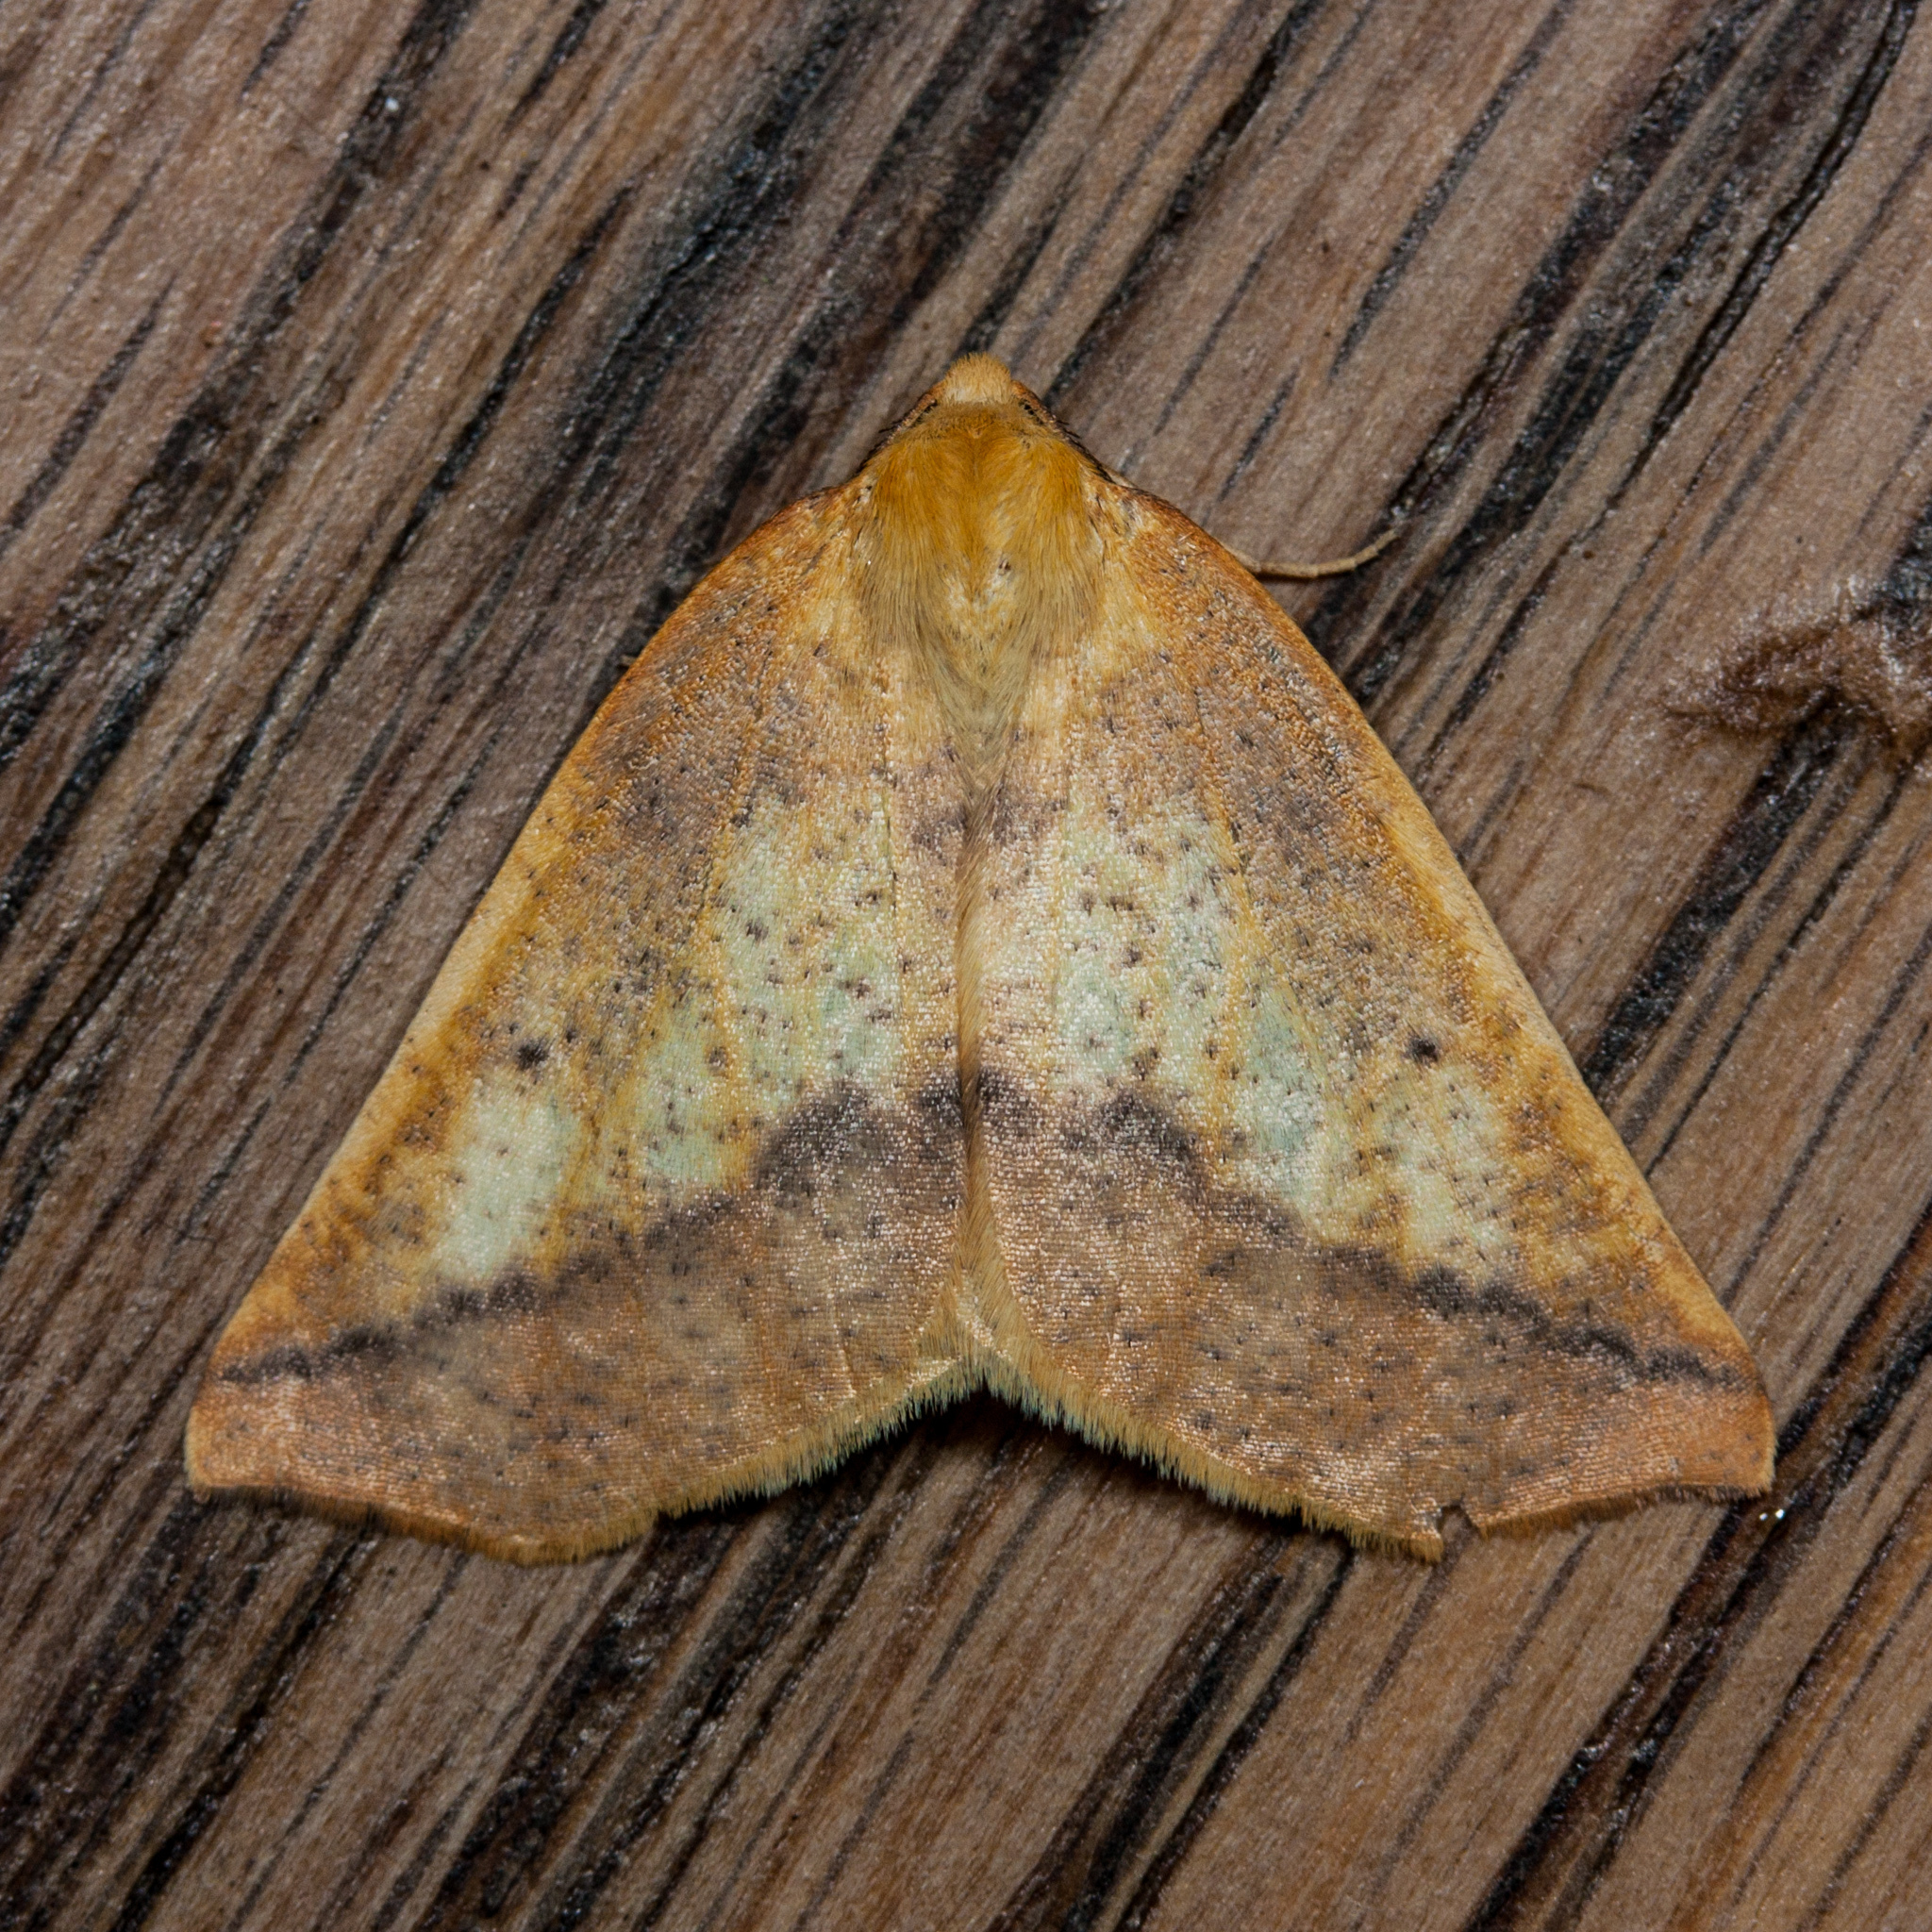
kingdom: Animalia
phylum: Arthropoda
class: Insecta
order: Lepidoptera
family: Geometridae
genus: Neoterpes
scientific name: Neoterpes edwardsata
